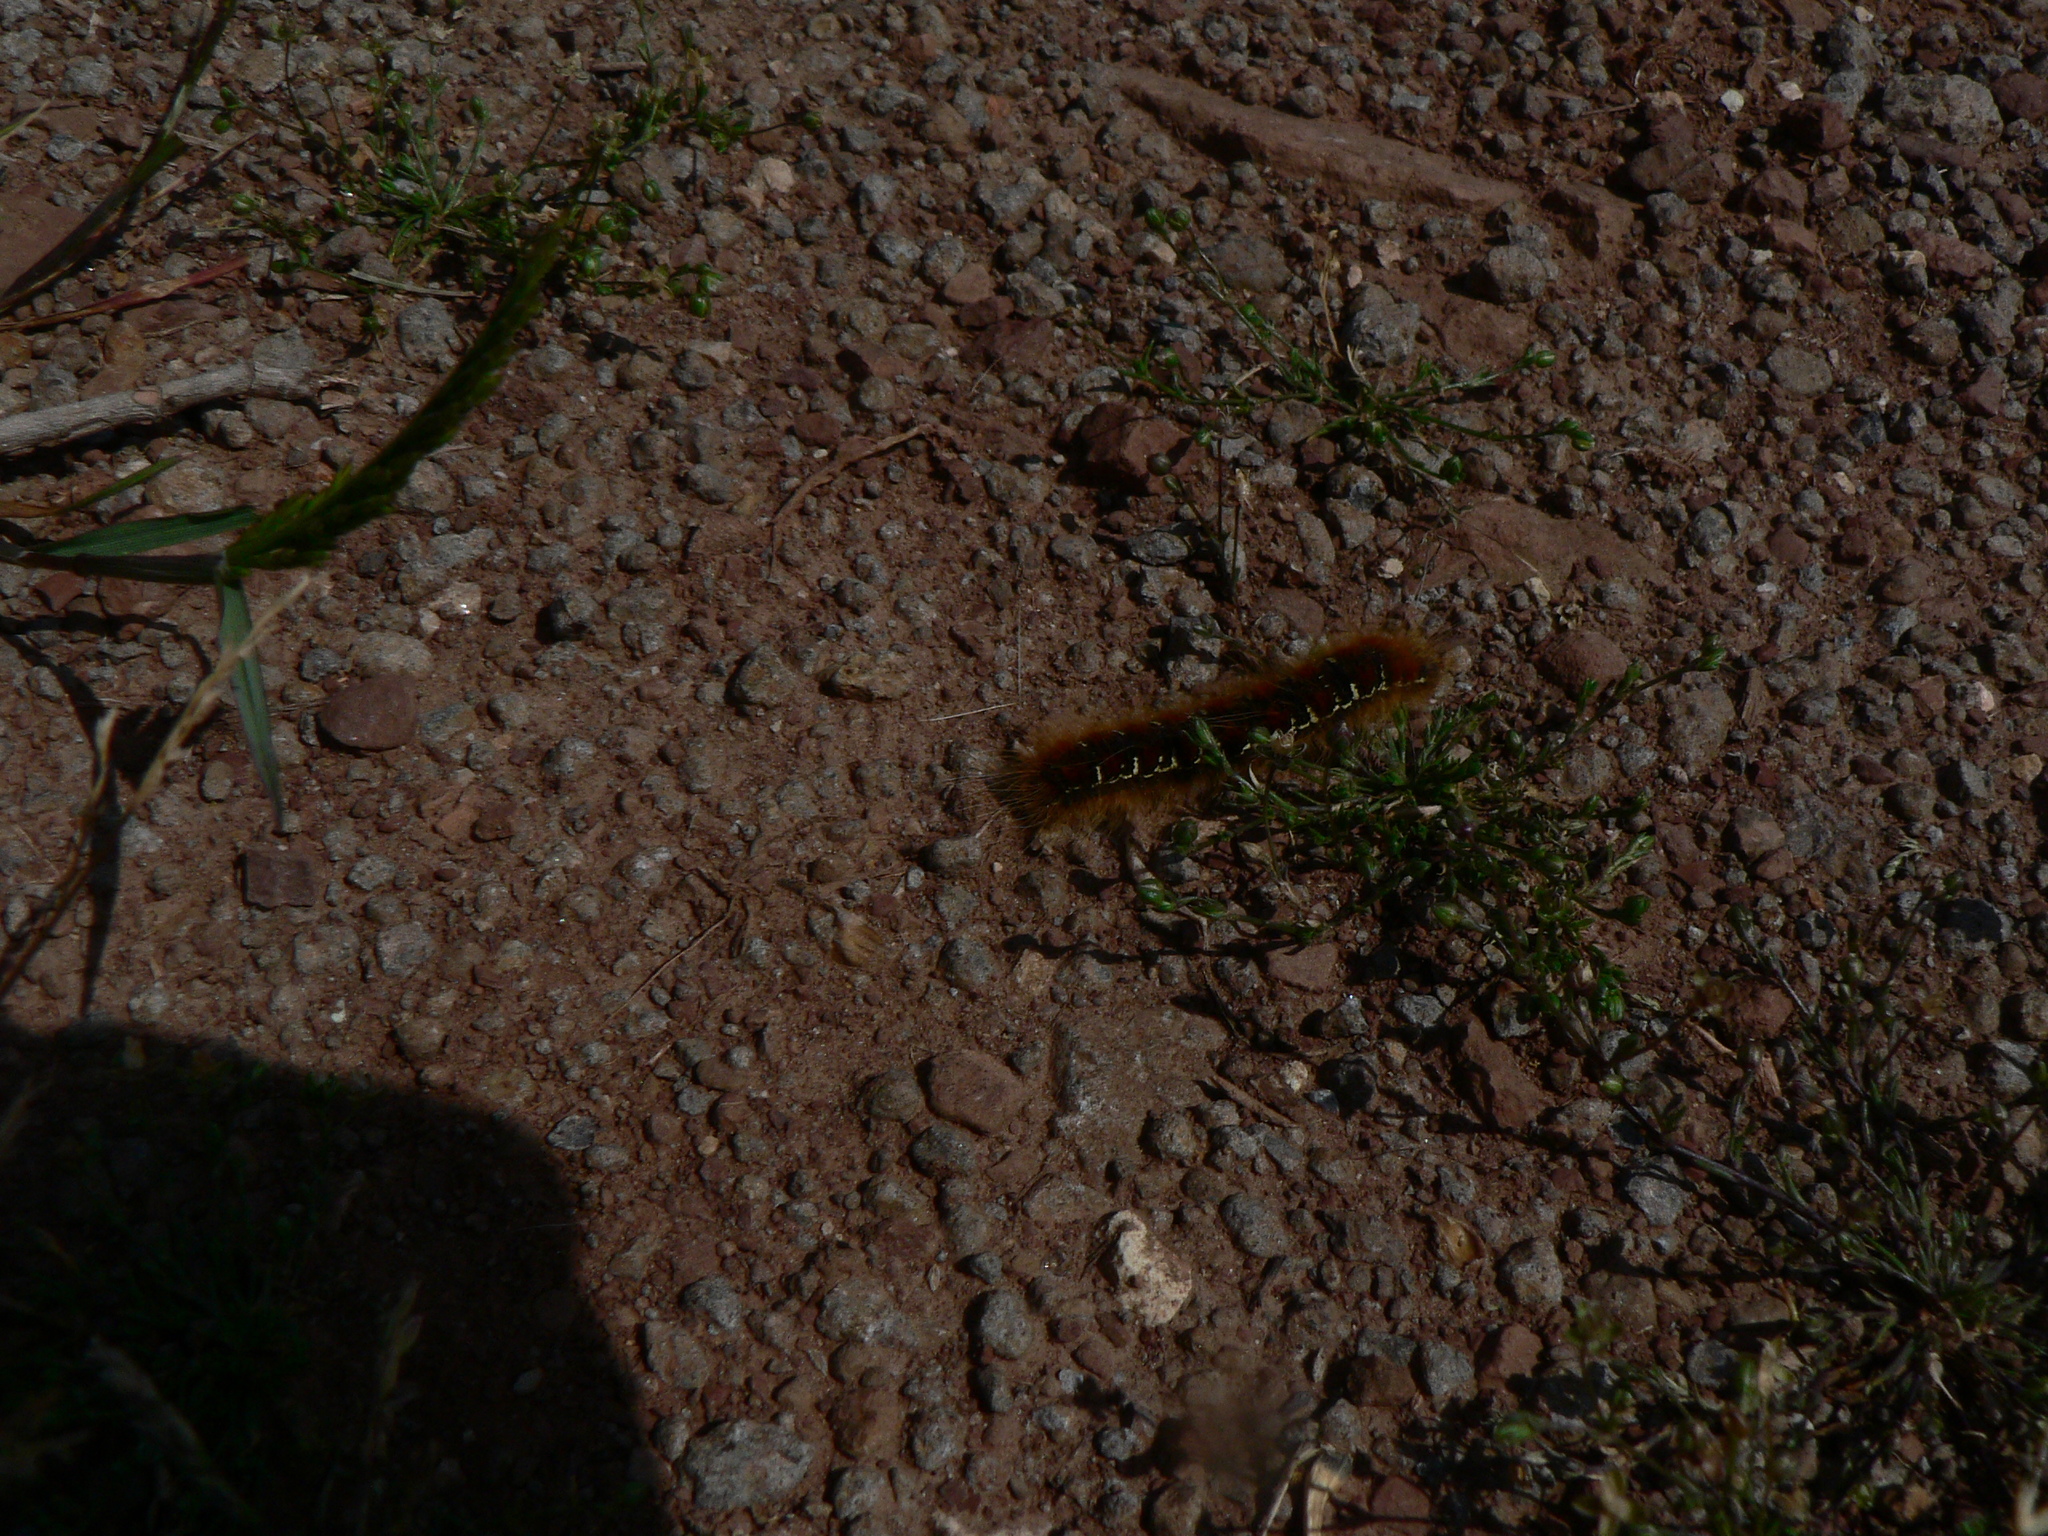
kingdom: Animalia
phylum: Arthropoda
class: Insecta
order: Lepidoptera
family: Lasiocampidae
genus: Eriogaster
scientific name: Eriogaster lanestris
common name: Small eggar
